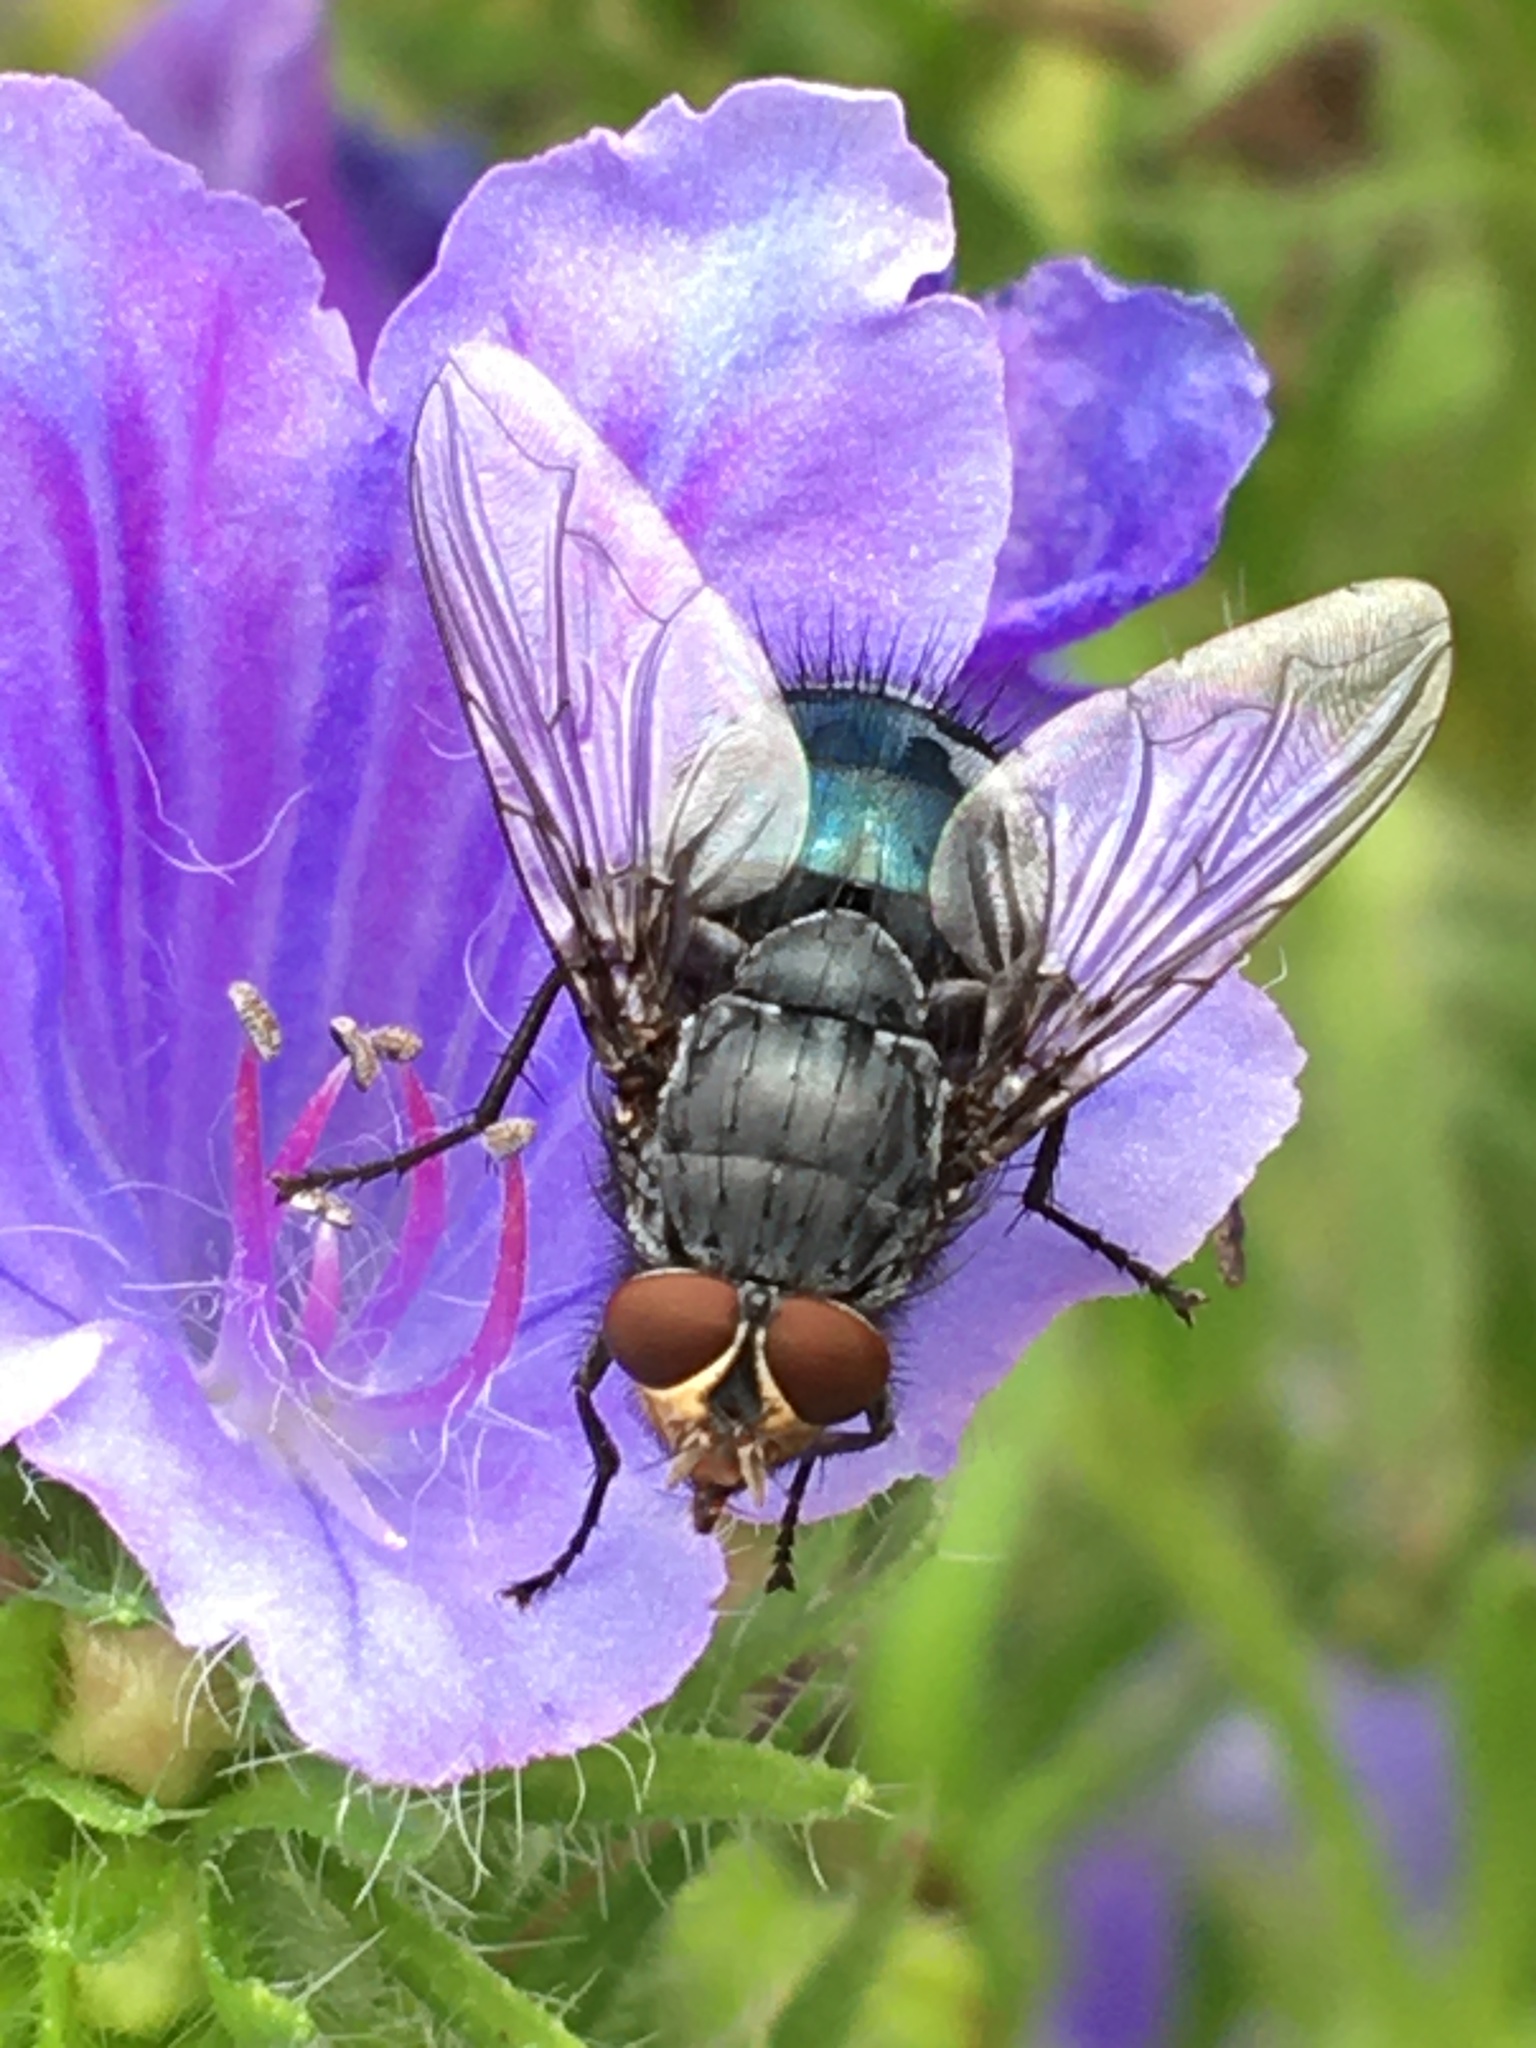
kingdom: Animalia
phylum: Arthropoda
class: Insecta
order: Diptera
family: Calliphoridae
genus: Calliphora
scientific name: Calliphora vicina
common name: Common blow flie
